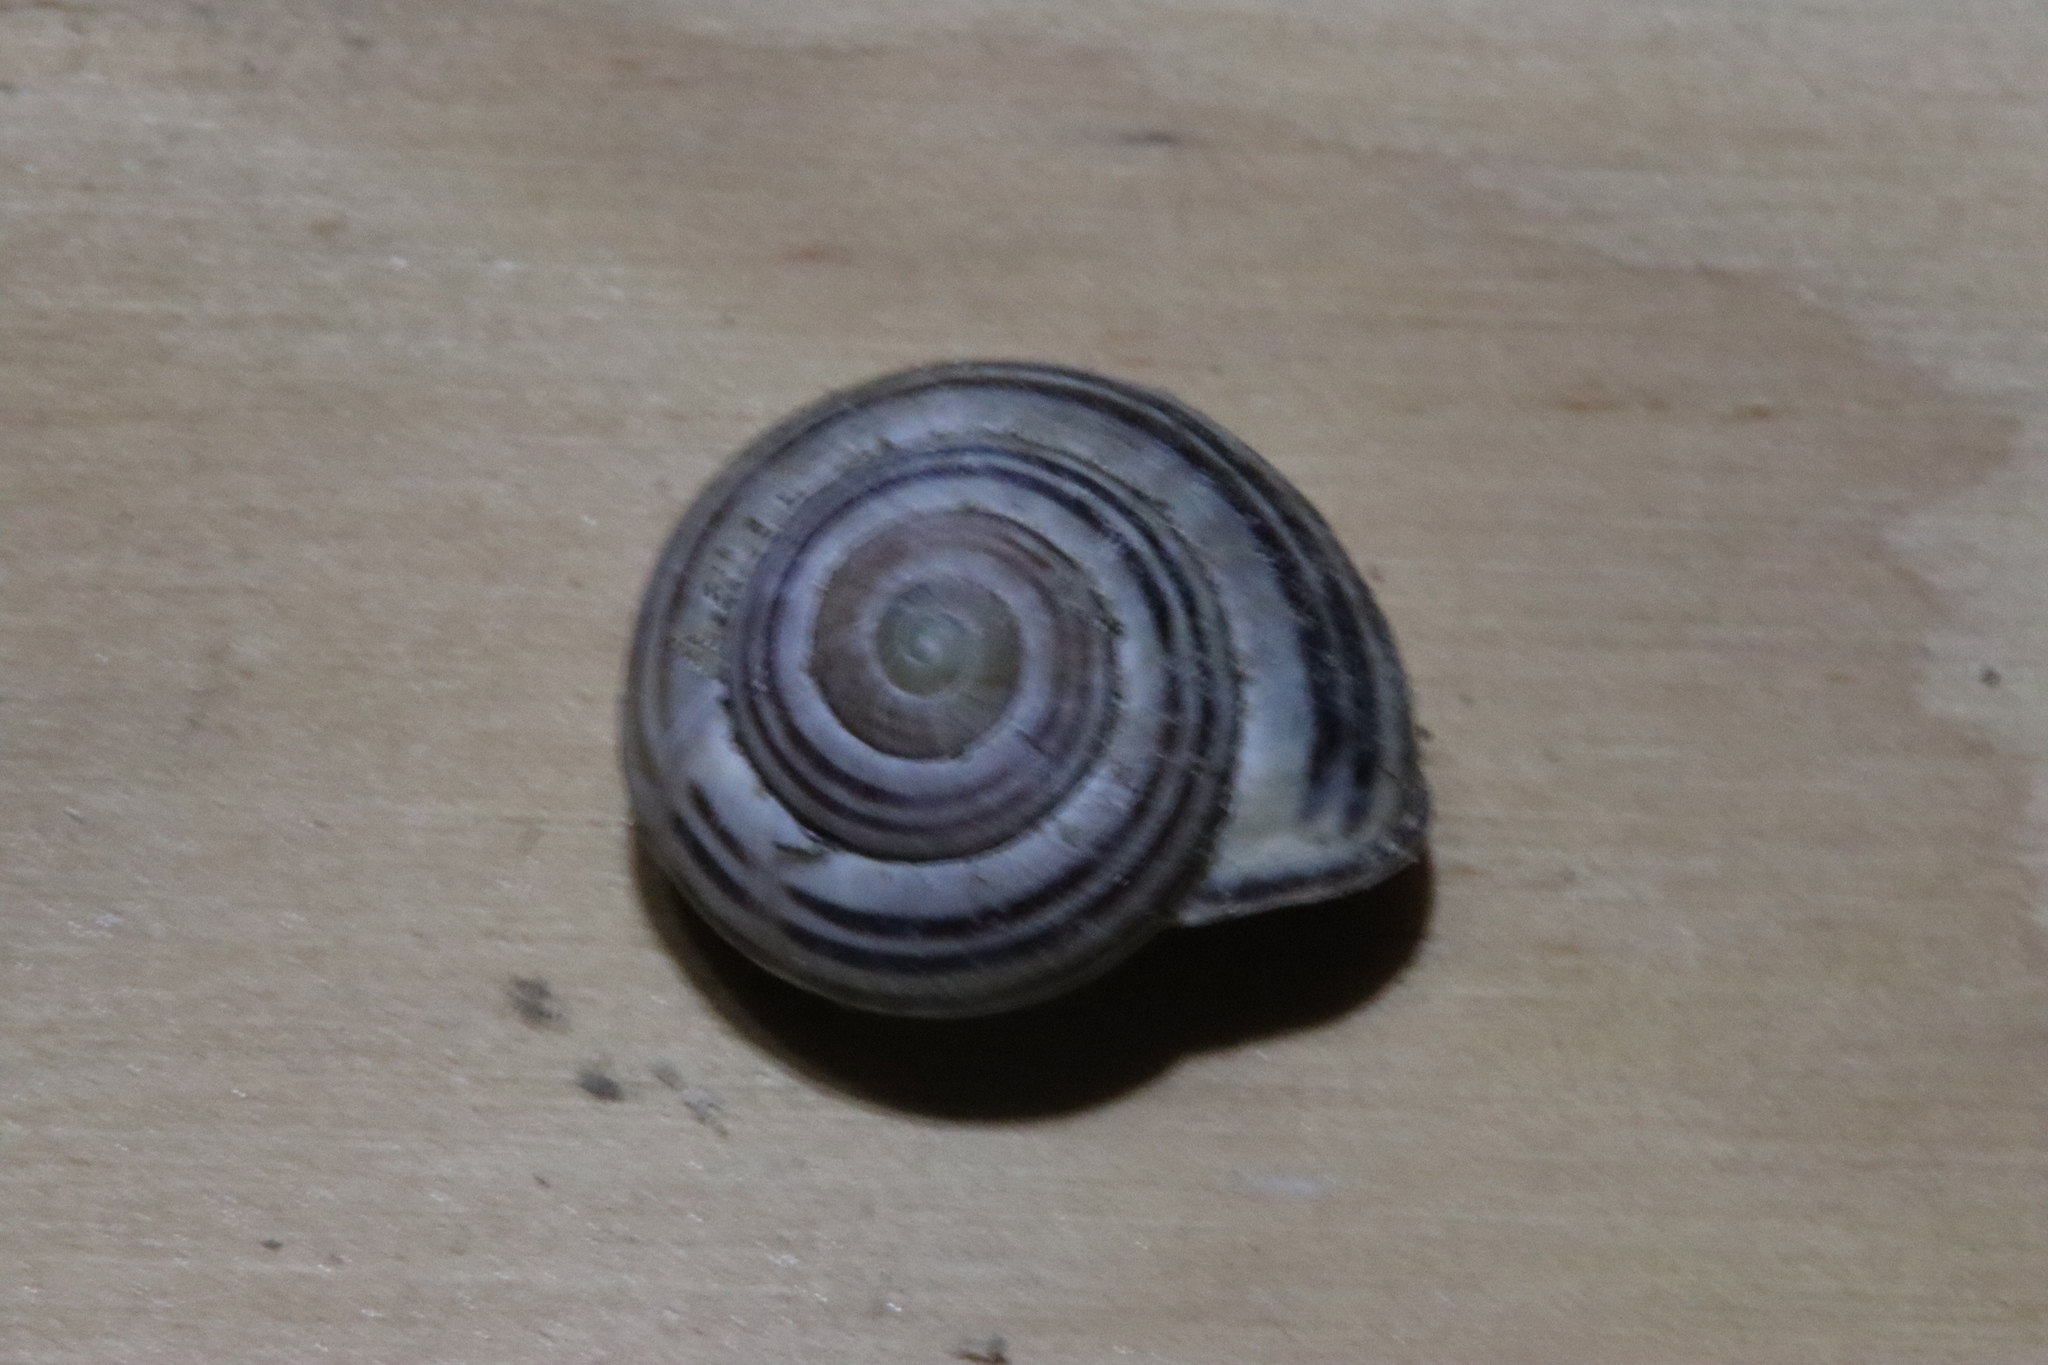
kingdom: Animalia
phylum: Mollusca
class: Gastropoda
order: Stylommatophora
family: Helicidae
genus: Cepaea
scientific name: Cepaea nemoralis
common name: Grovesnail
